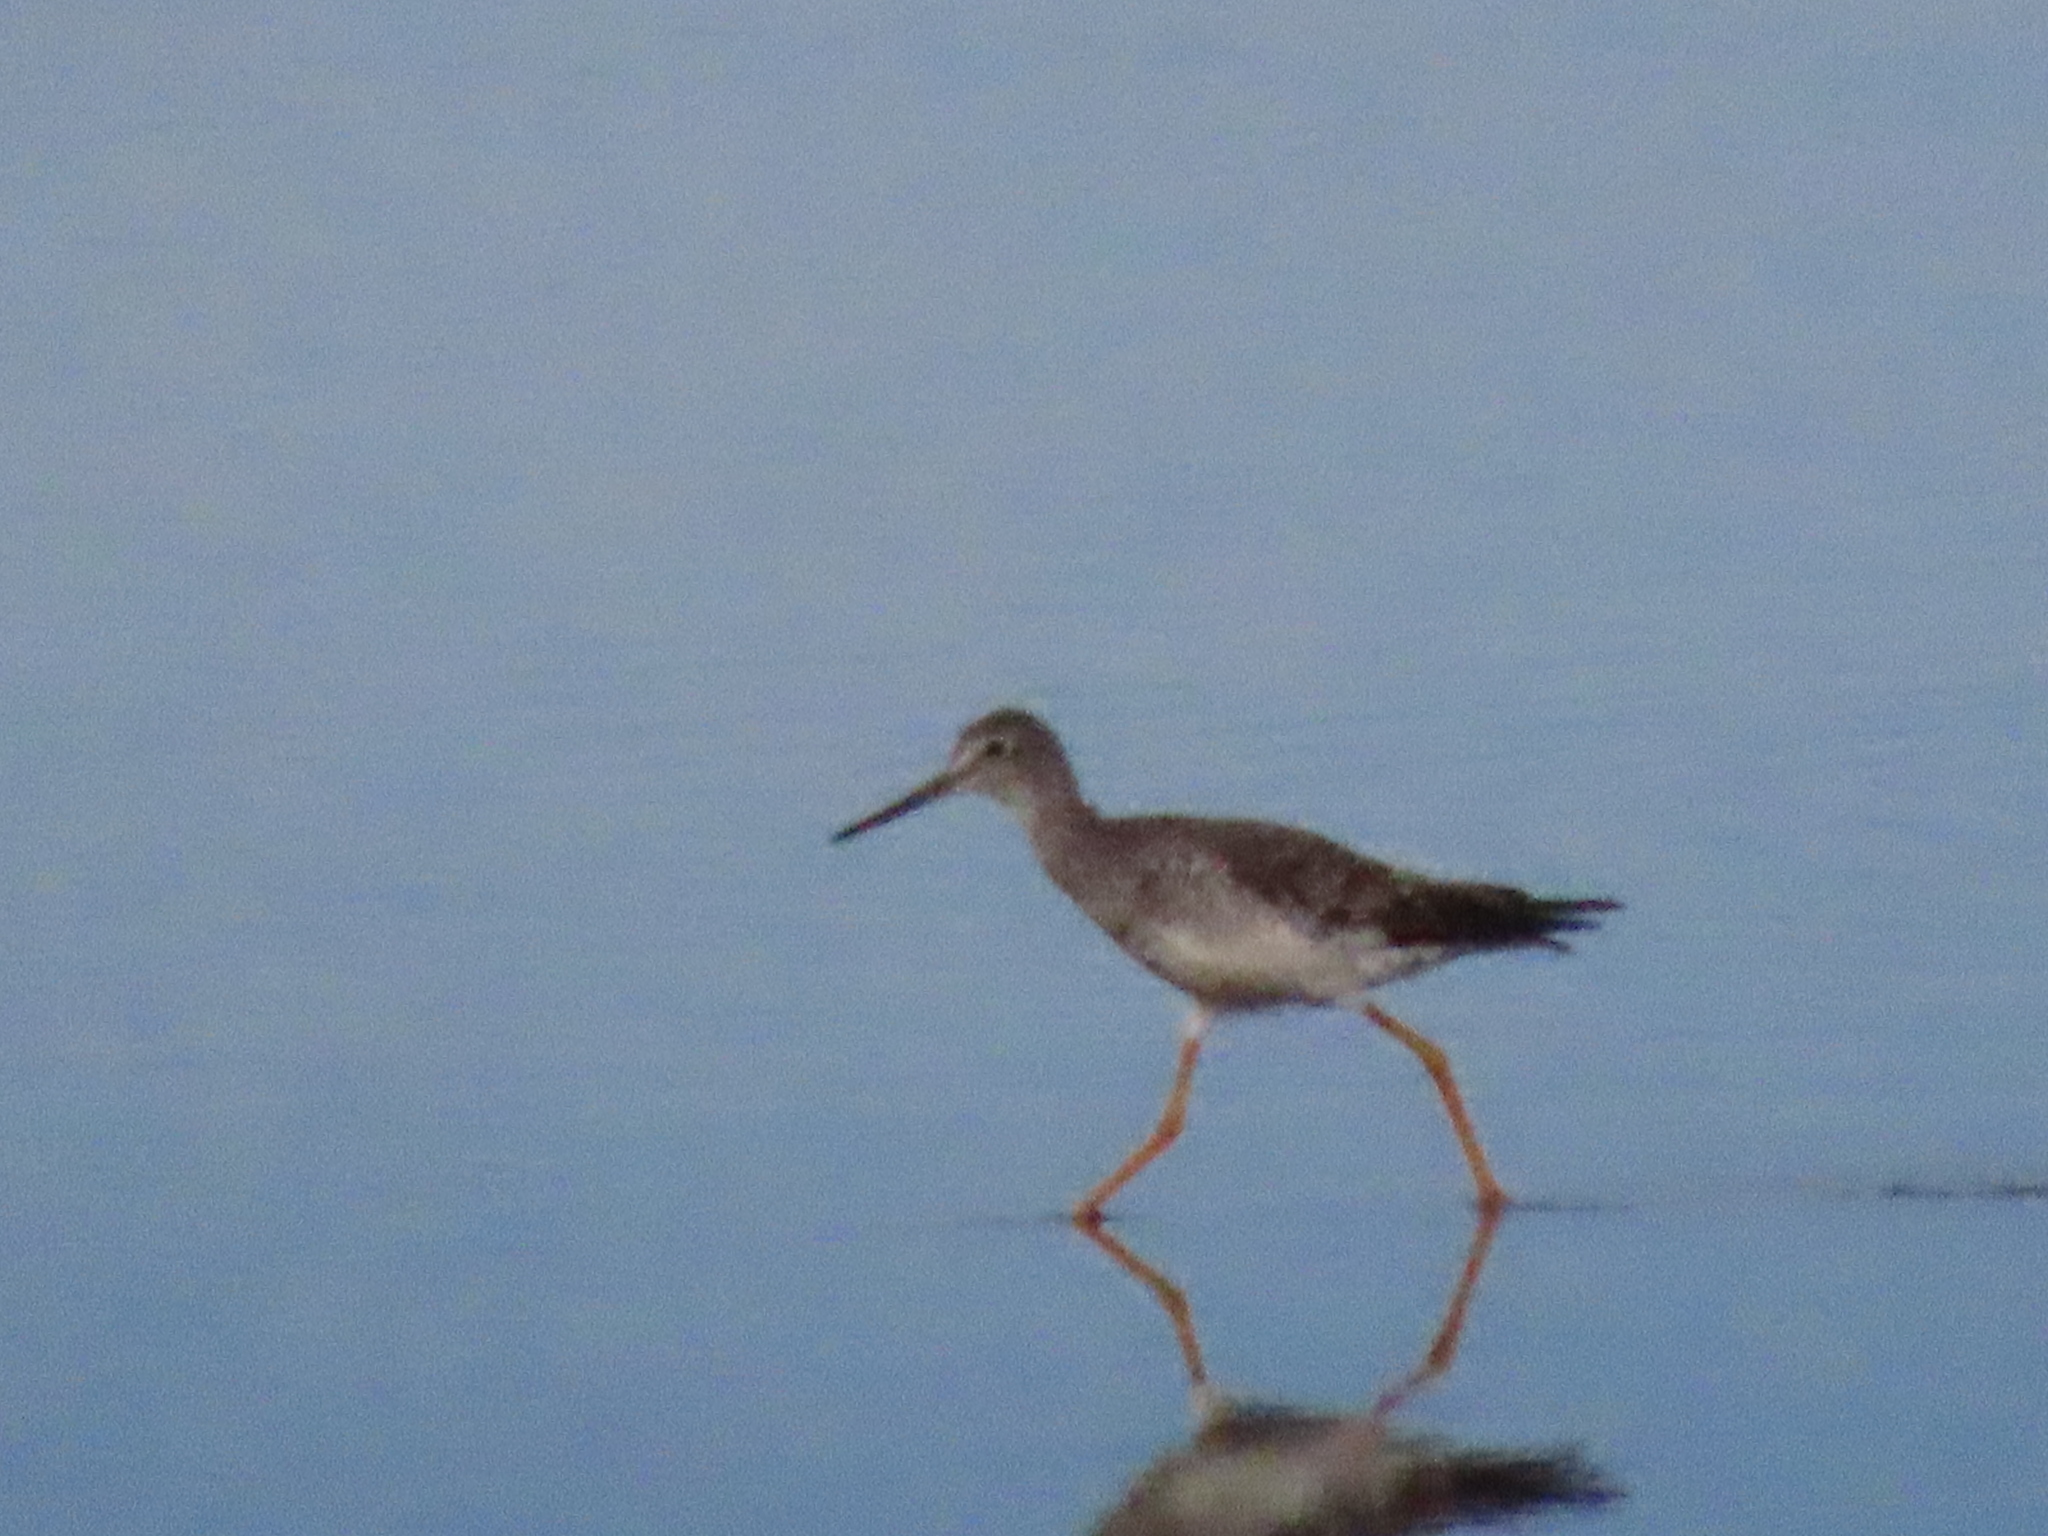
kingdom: Animalia
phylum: Chordata
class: Aves
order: Charadriiformes
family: Scolopacidae
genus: Tringa
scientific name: Tringa melanoleuca
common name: Greater yellowlegs
